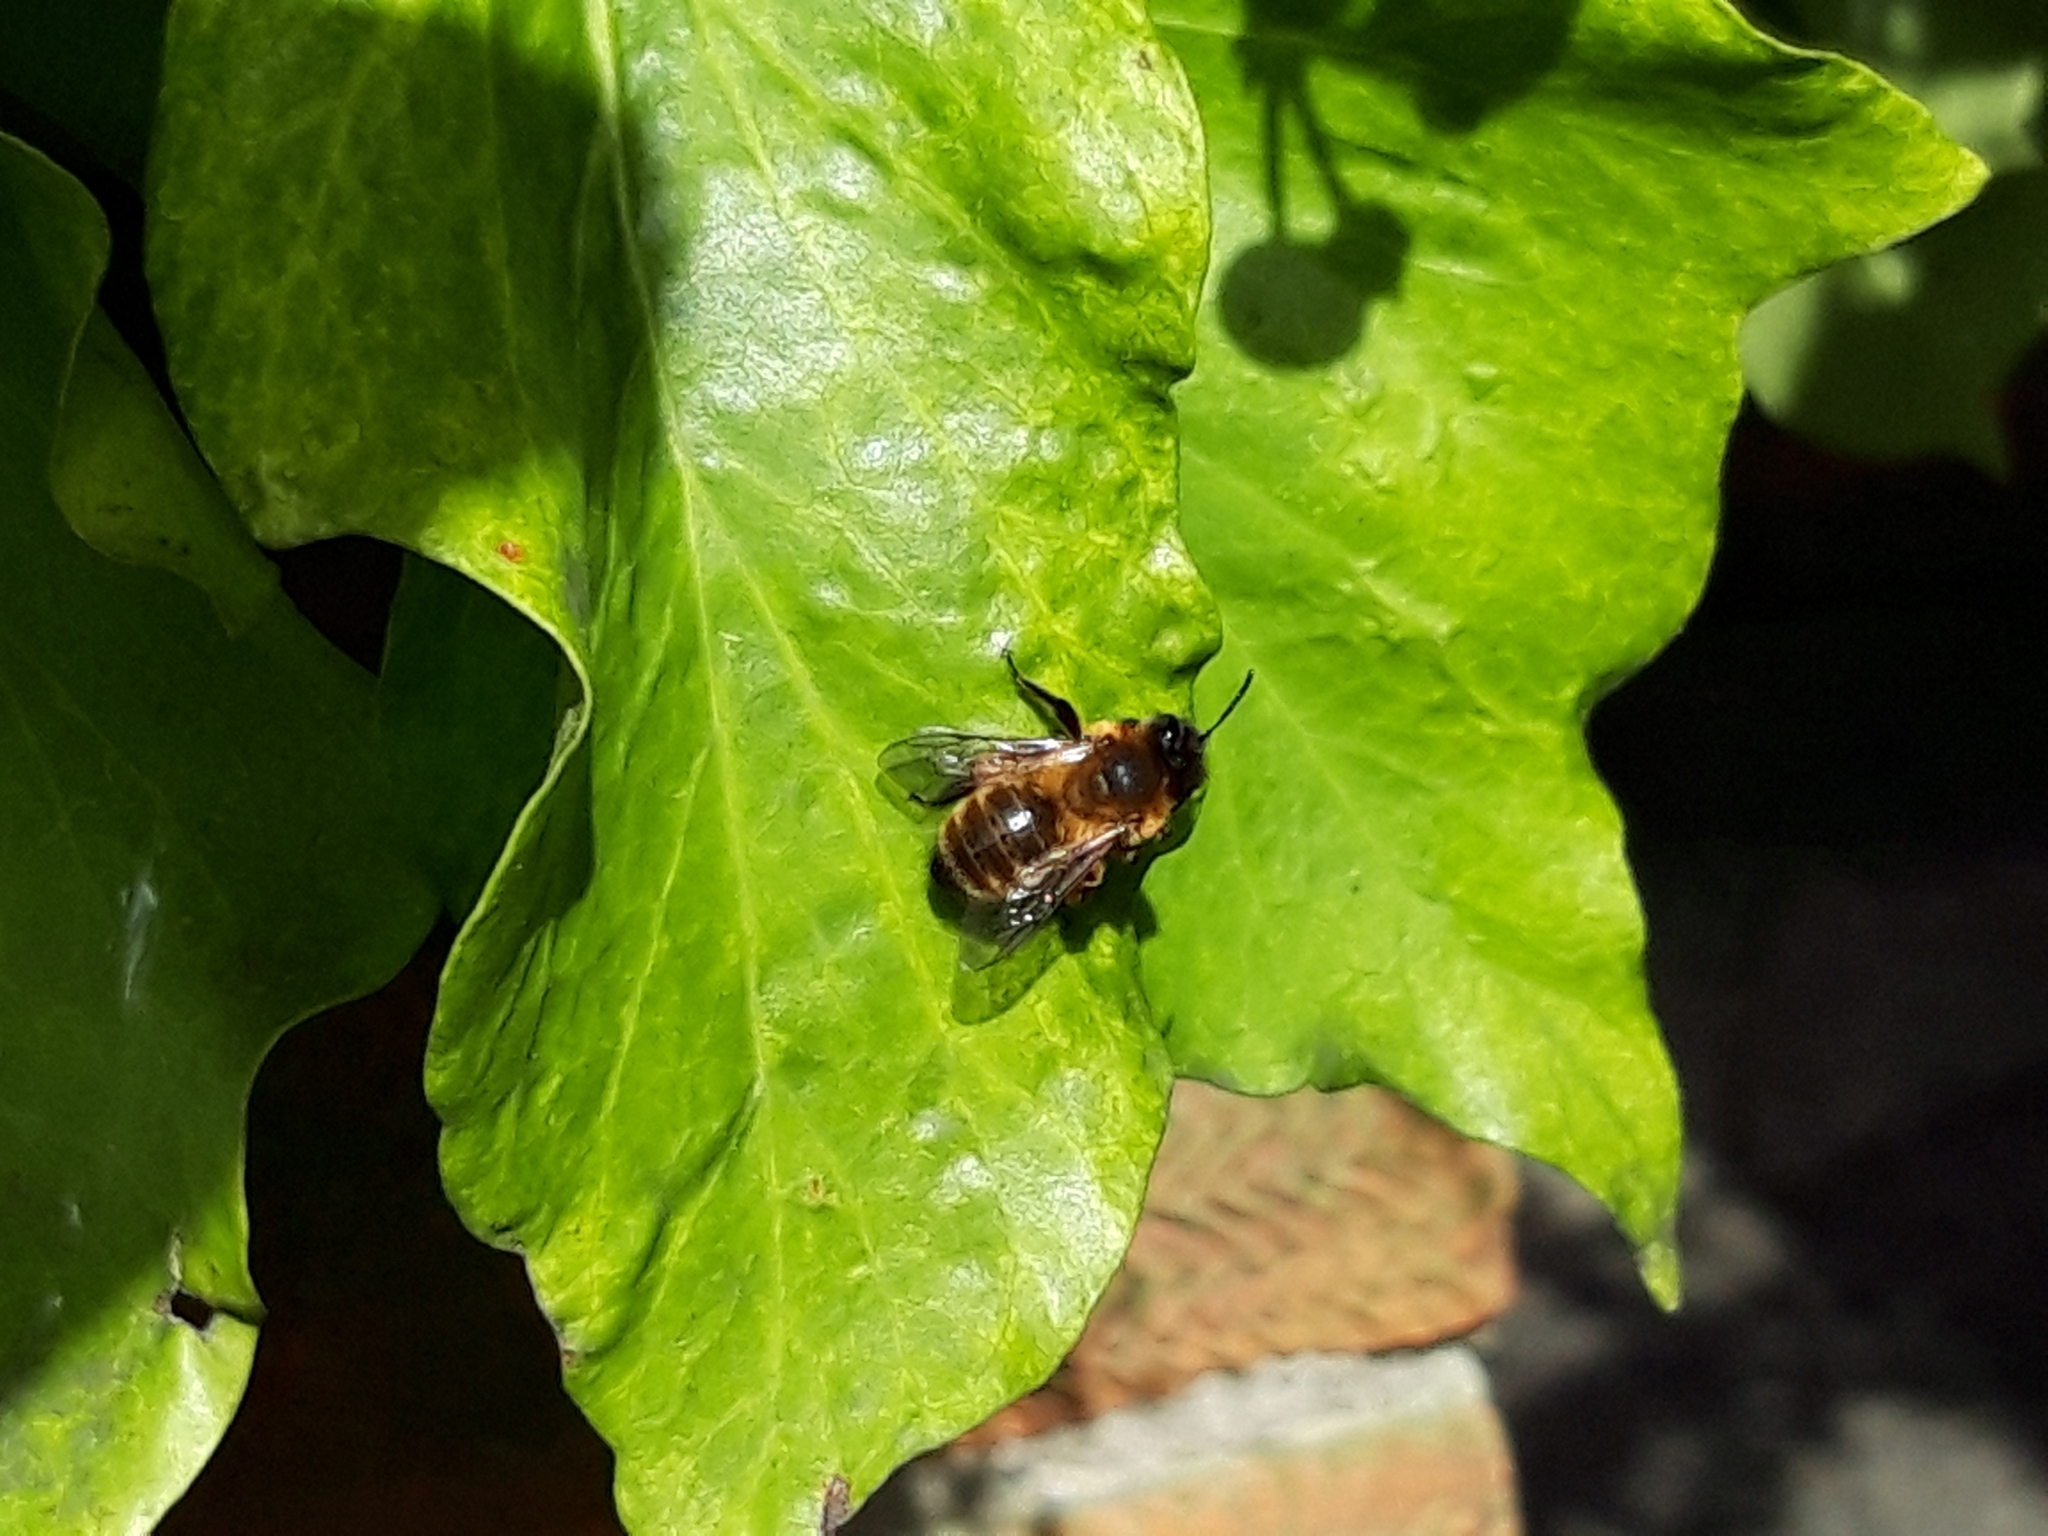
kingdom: Animalia
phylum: Arthropoda
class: Insecta
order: Hymenoptera
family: Andrenidae
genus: Andrena
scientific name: Andrena nigroaenea
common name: Buffish mining bee
